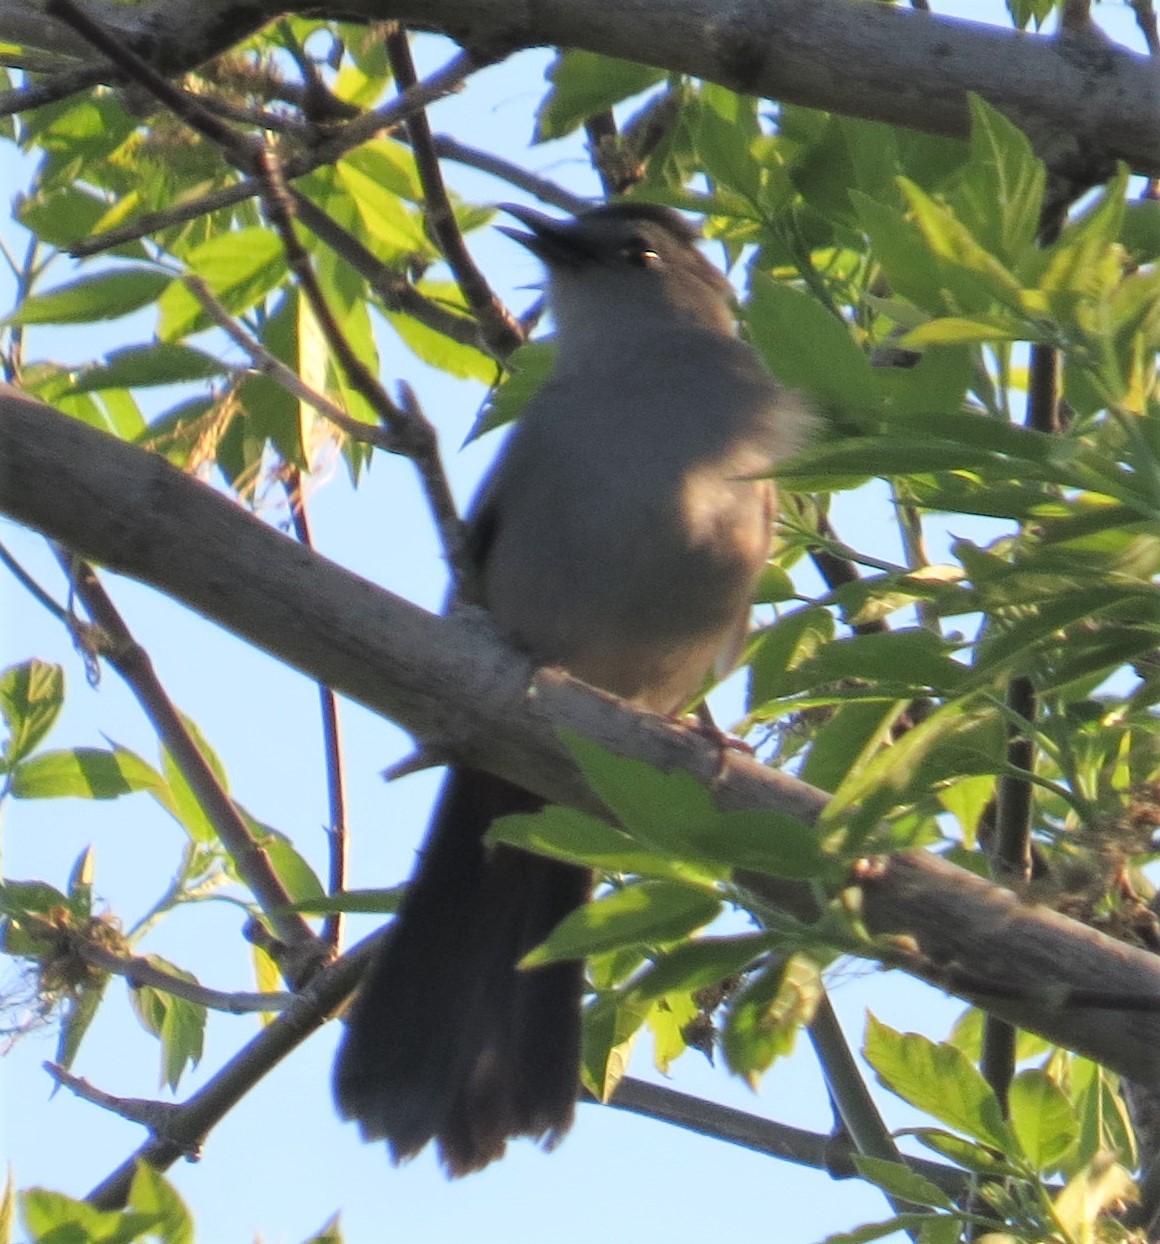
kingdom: Animalia
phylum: Chordata
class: Aves
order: Passeriformes
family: Mimidae
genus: Dumetella
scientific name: Dumetella carolinensis
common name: Gray catbird
